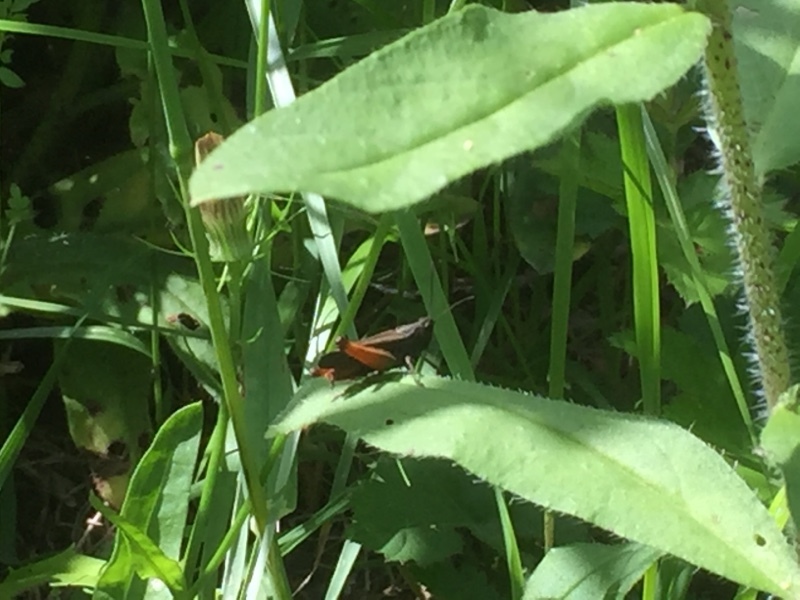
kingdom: Animalia
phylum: Arthropoda
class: Insecta
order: Orthoptera
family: Acrididae
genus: Omocestus
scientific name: Omocestus rufipes
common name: Woodland grasshopper
